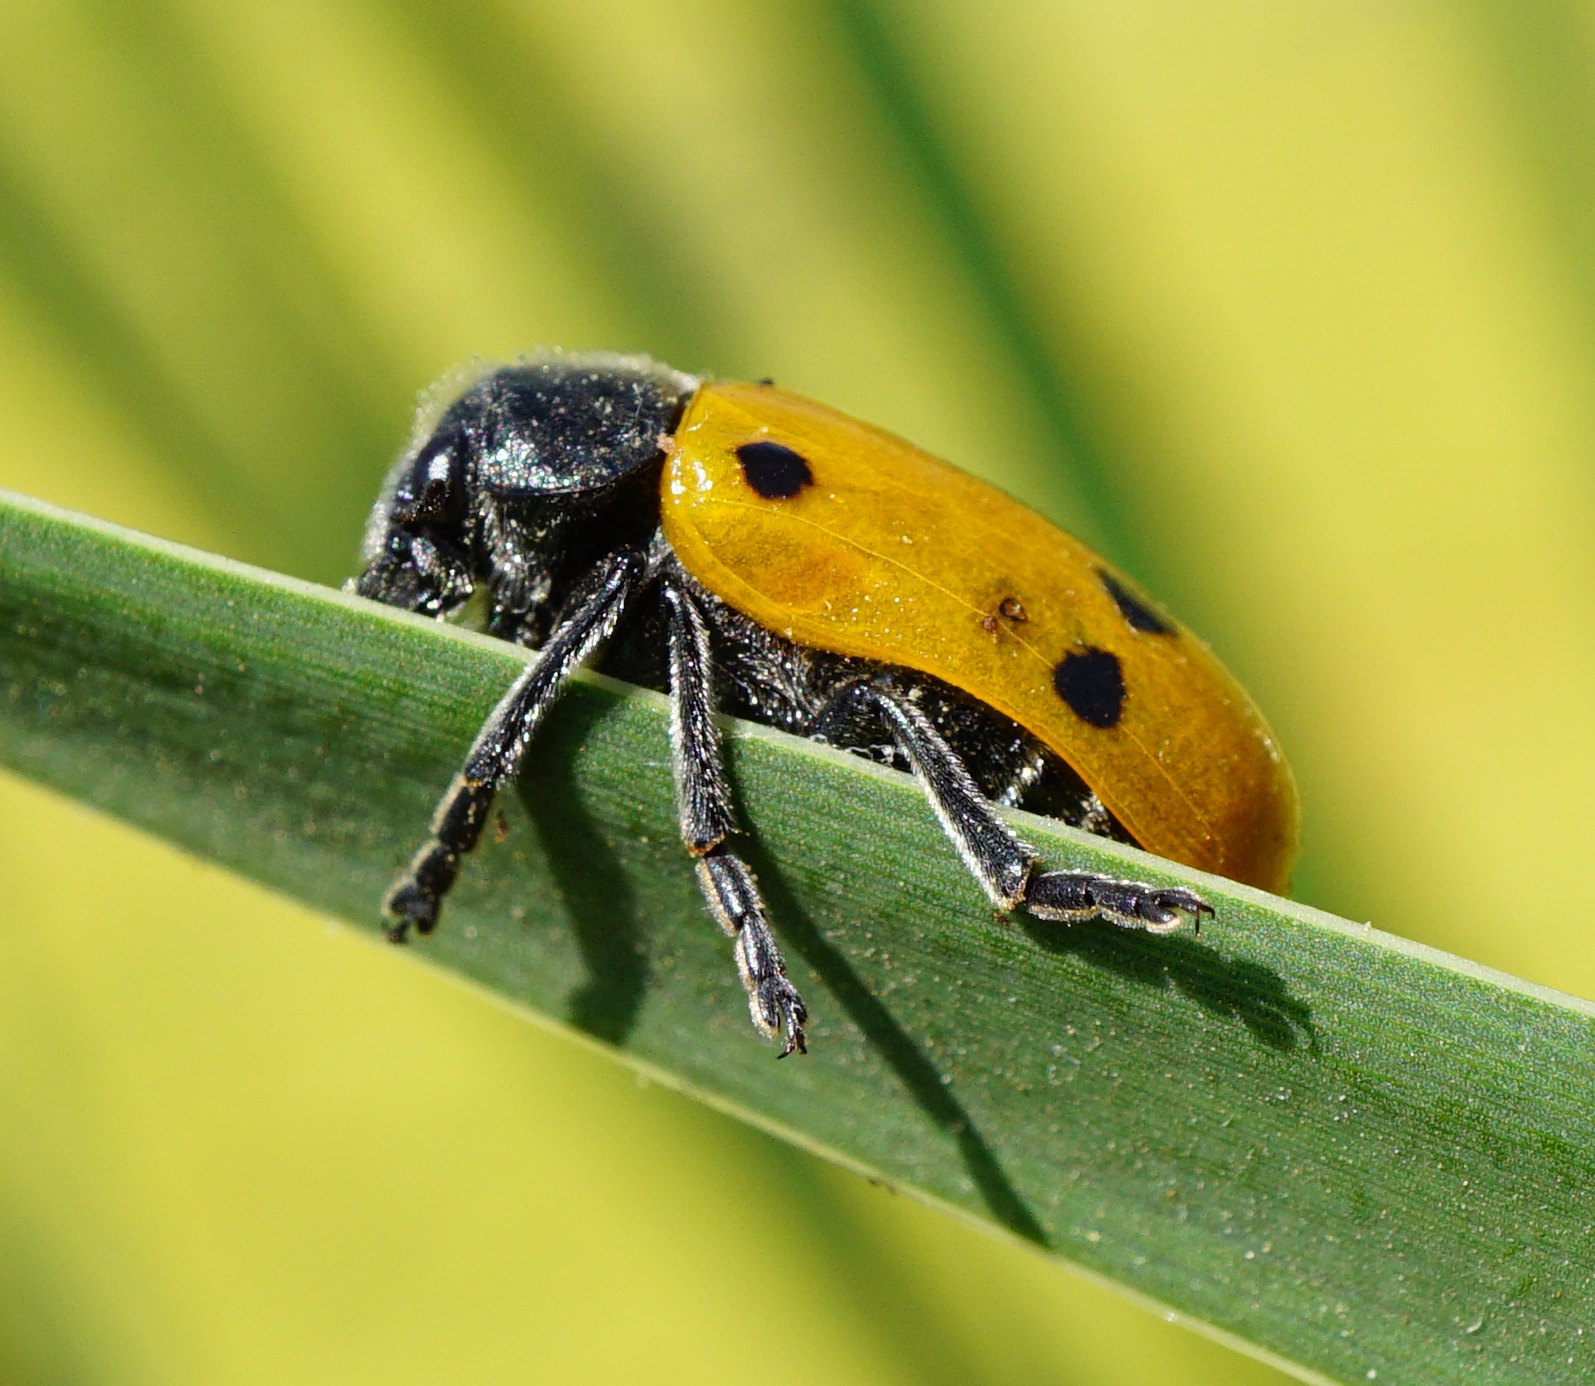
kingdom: Animalia
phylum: Arthropoda
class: Insecta
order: Coleoptera
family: Chrysomelidae
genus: Lachnaia
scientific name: Lachnaia sexpunctata
